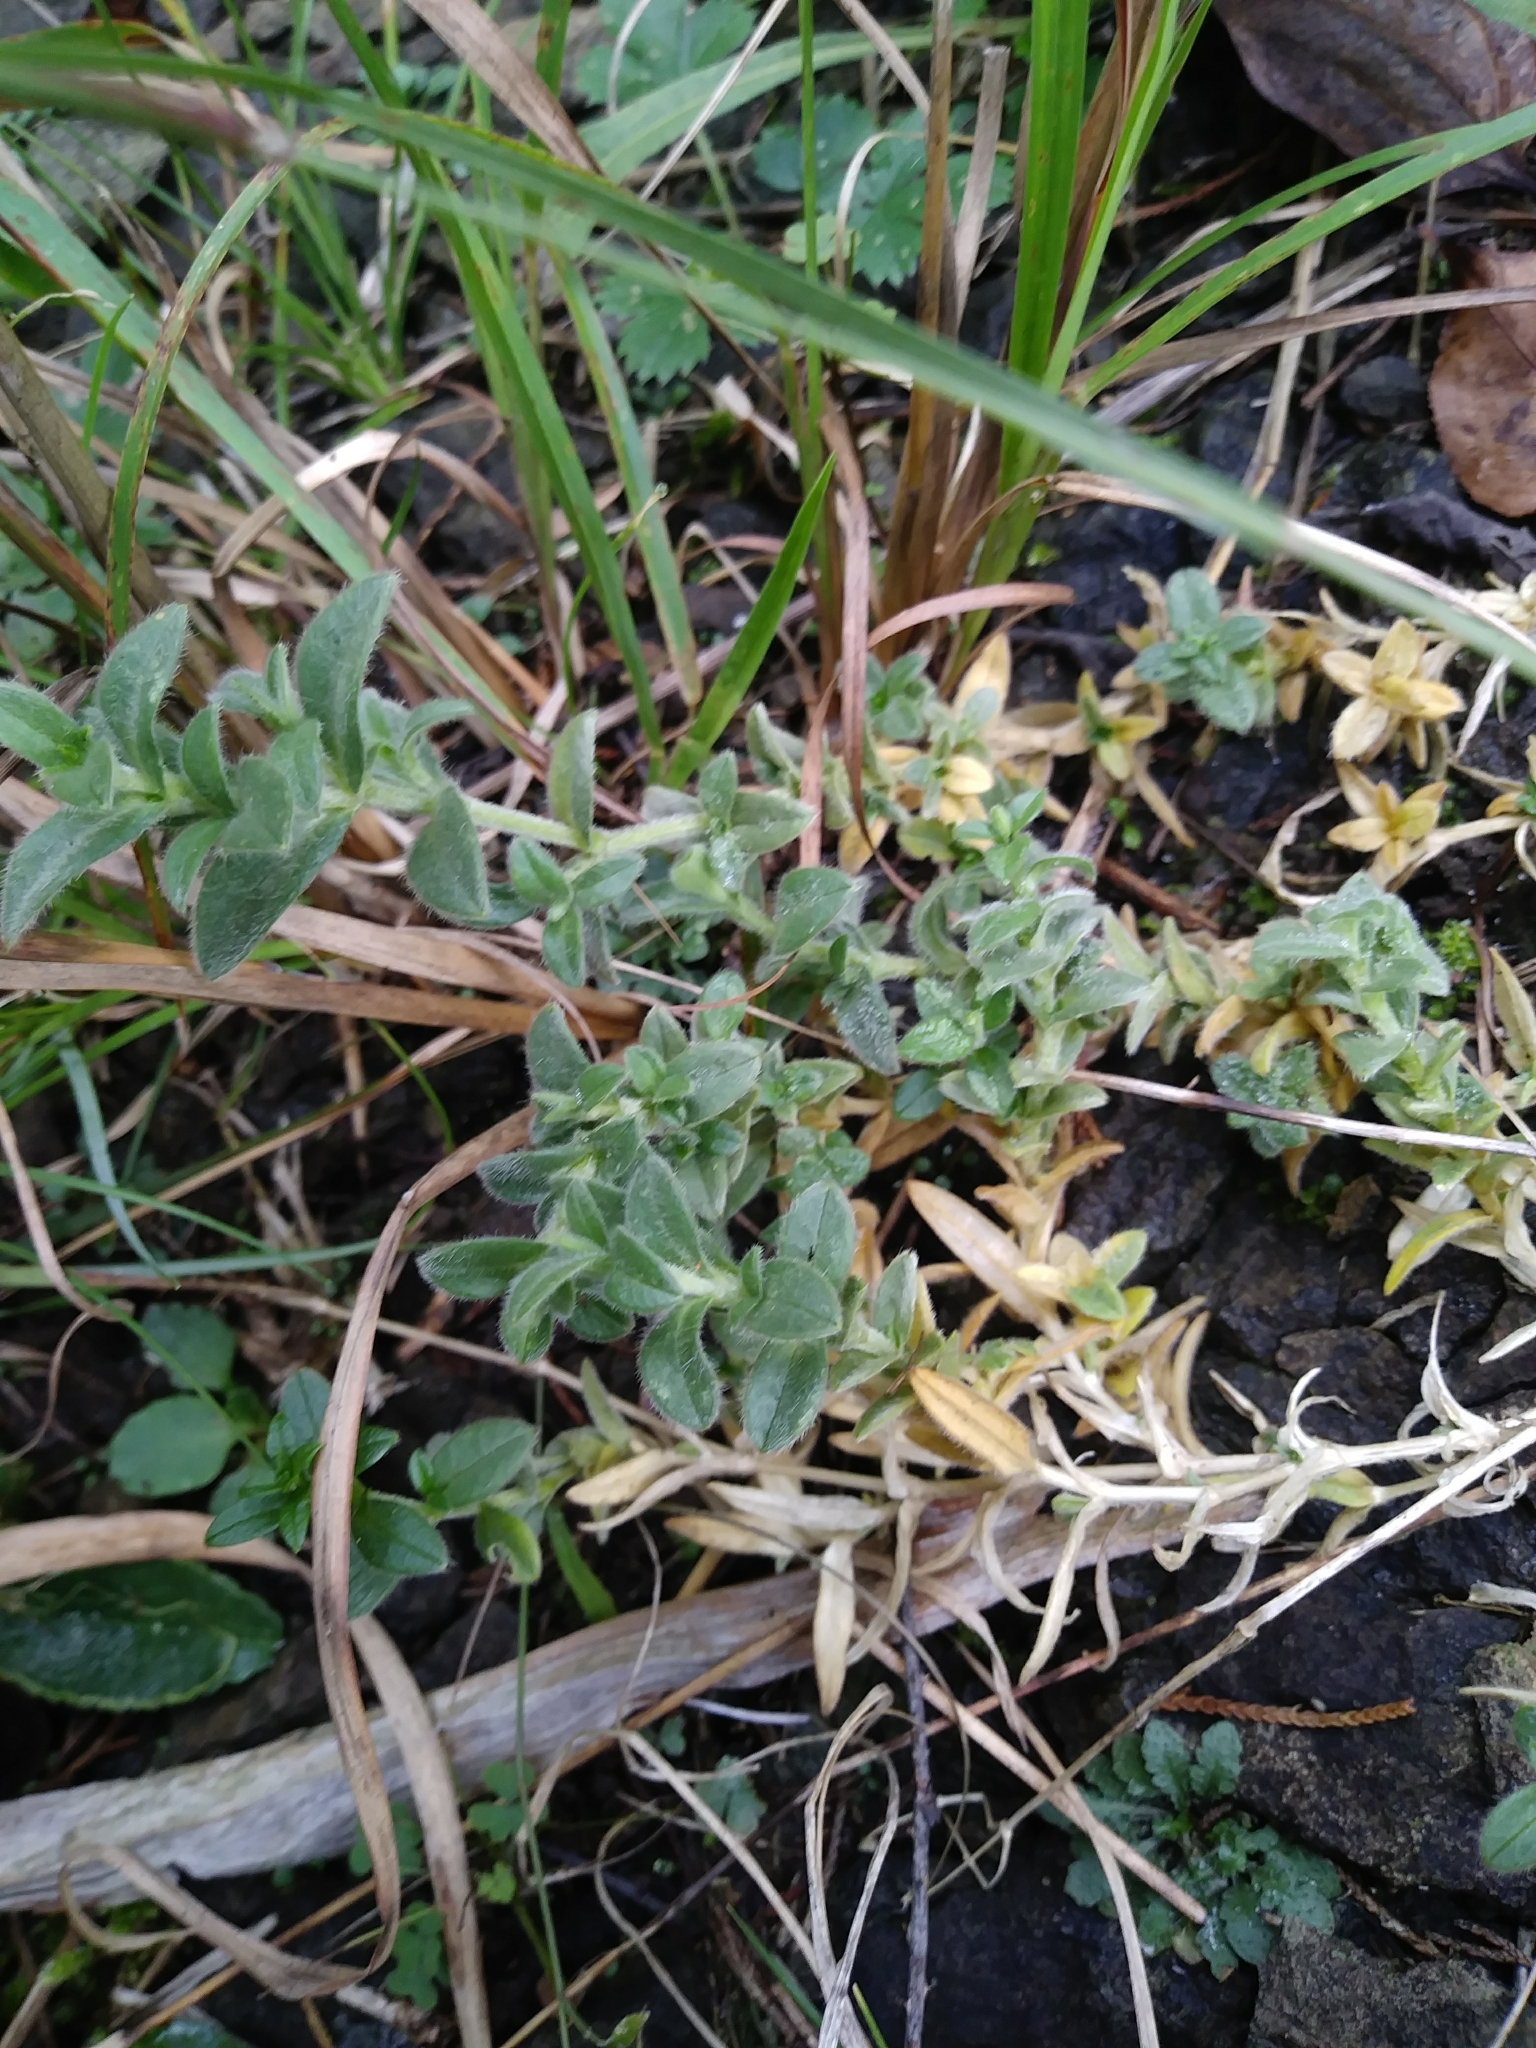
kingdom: Plantae
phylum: Tracheophyta
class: Magnoliopsida
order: Caryophyllales
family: Caryophyllaceae
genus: Cerastium
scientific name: Cerastium velutinum
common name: Barren chickweed
